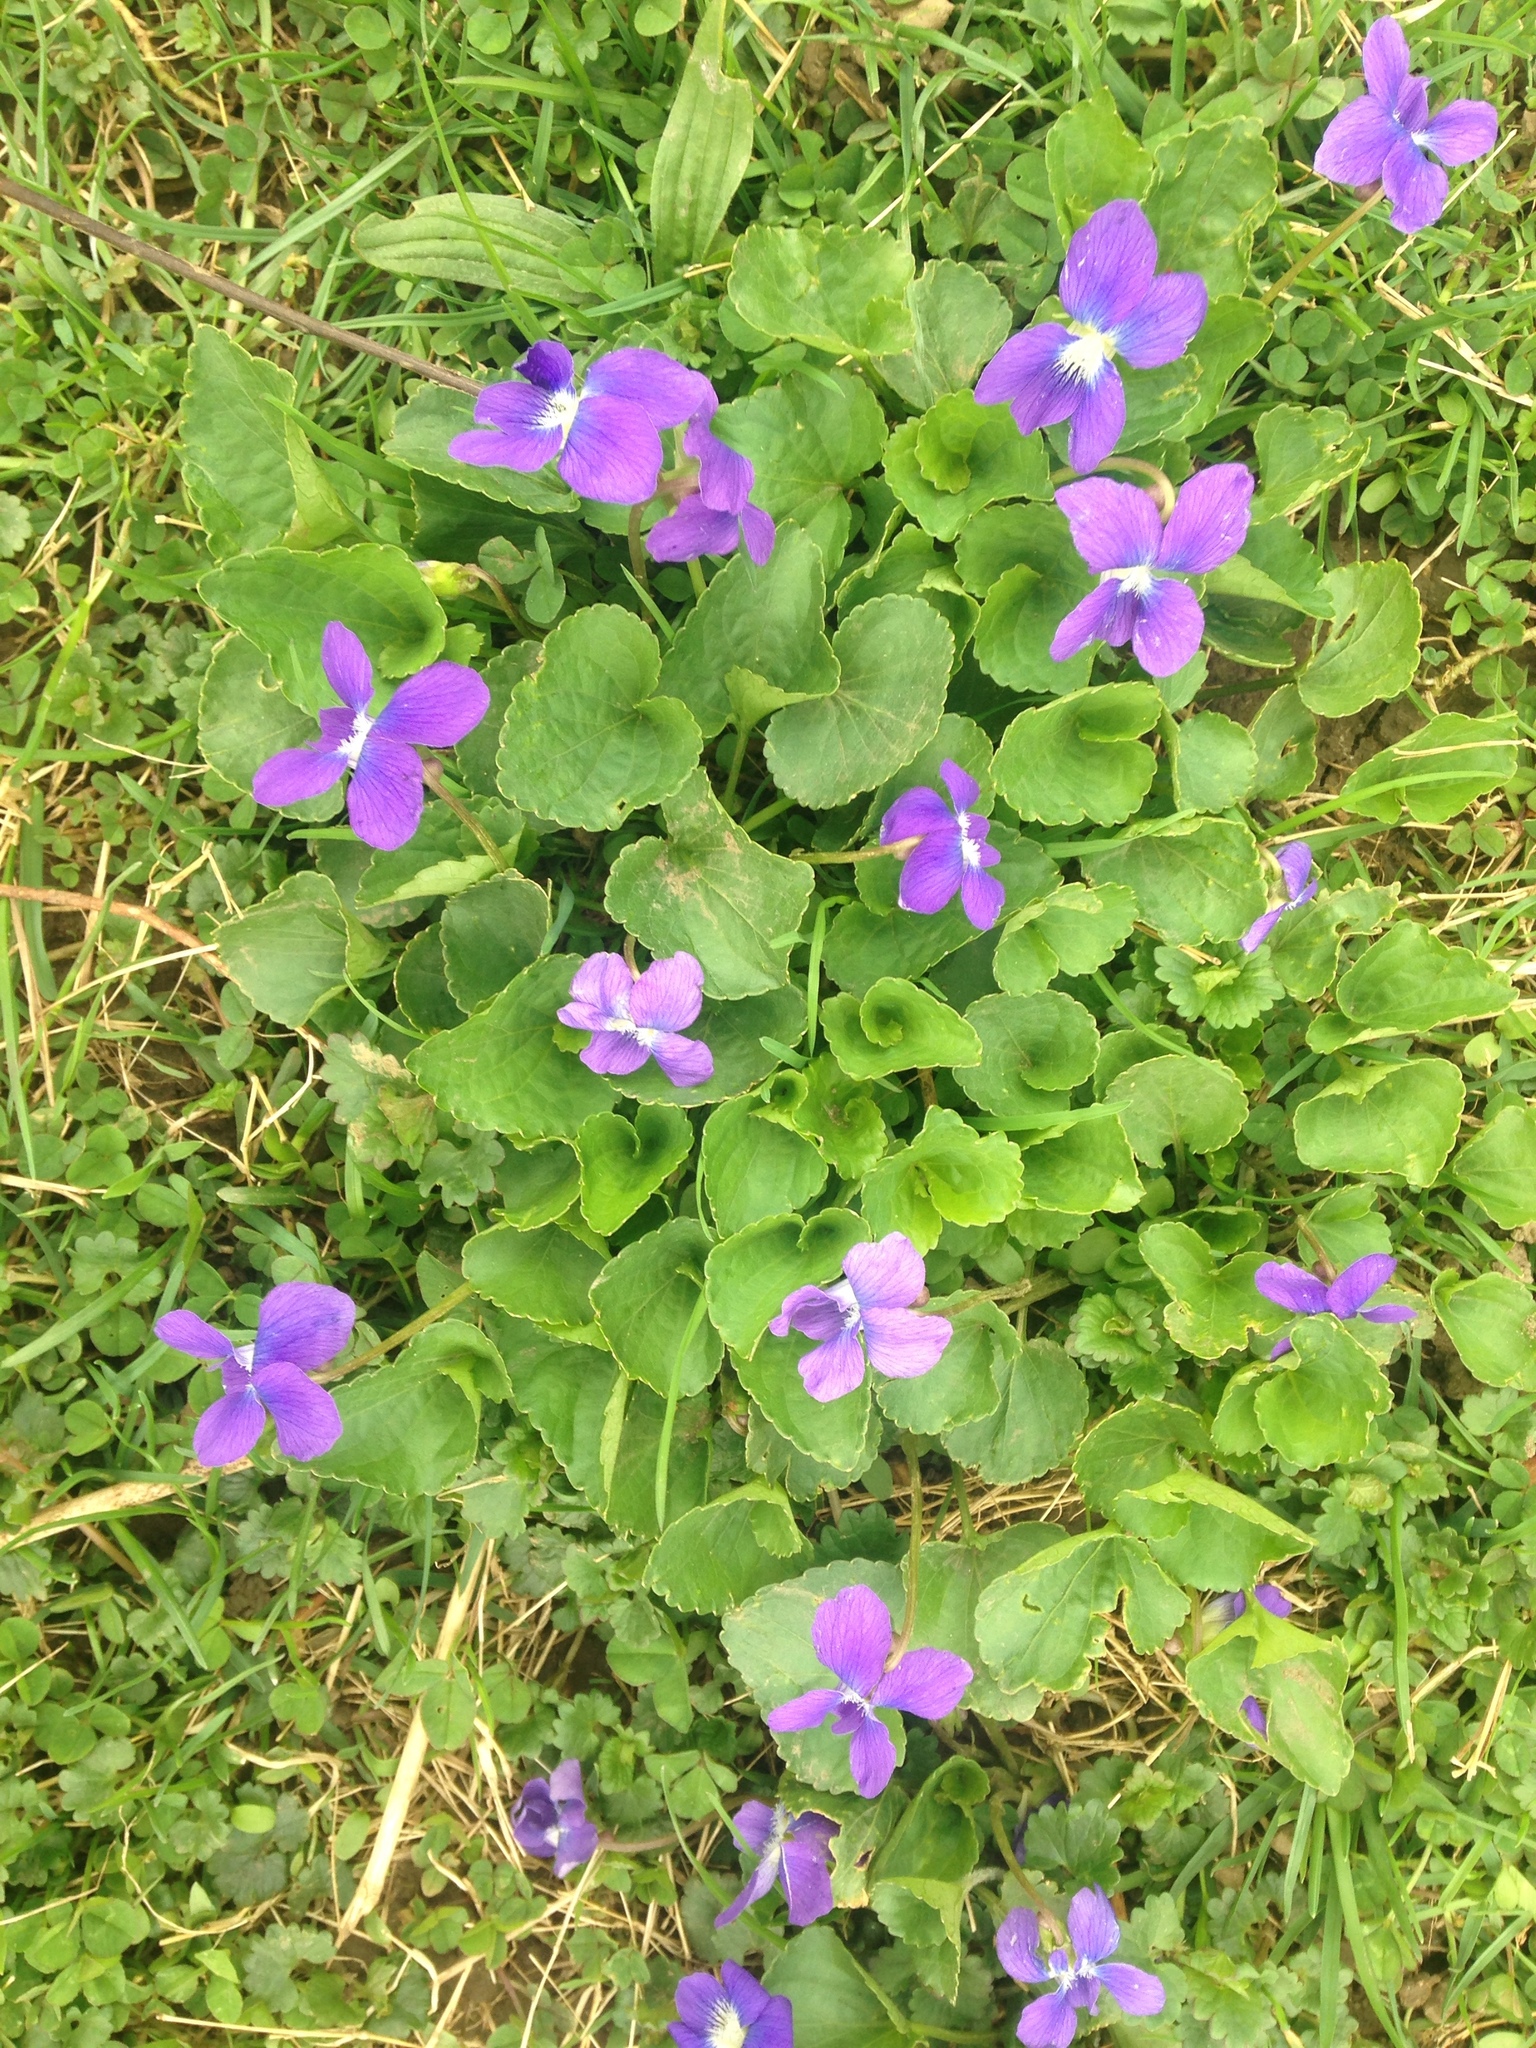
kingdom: Plantae
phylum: Tracheophyta
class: Magnoliopsida
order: Malpighiales
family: Violaceae
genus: Viola
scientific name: Viola sororia
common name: Dooryard violet
